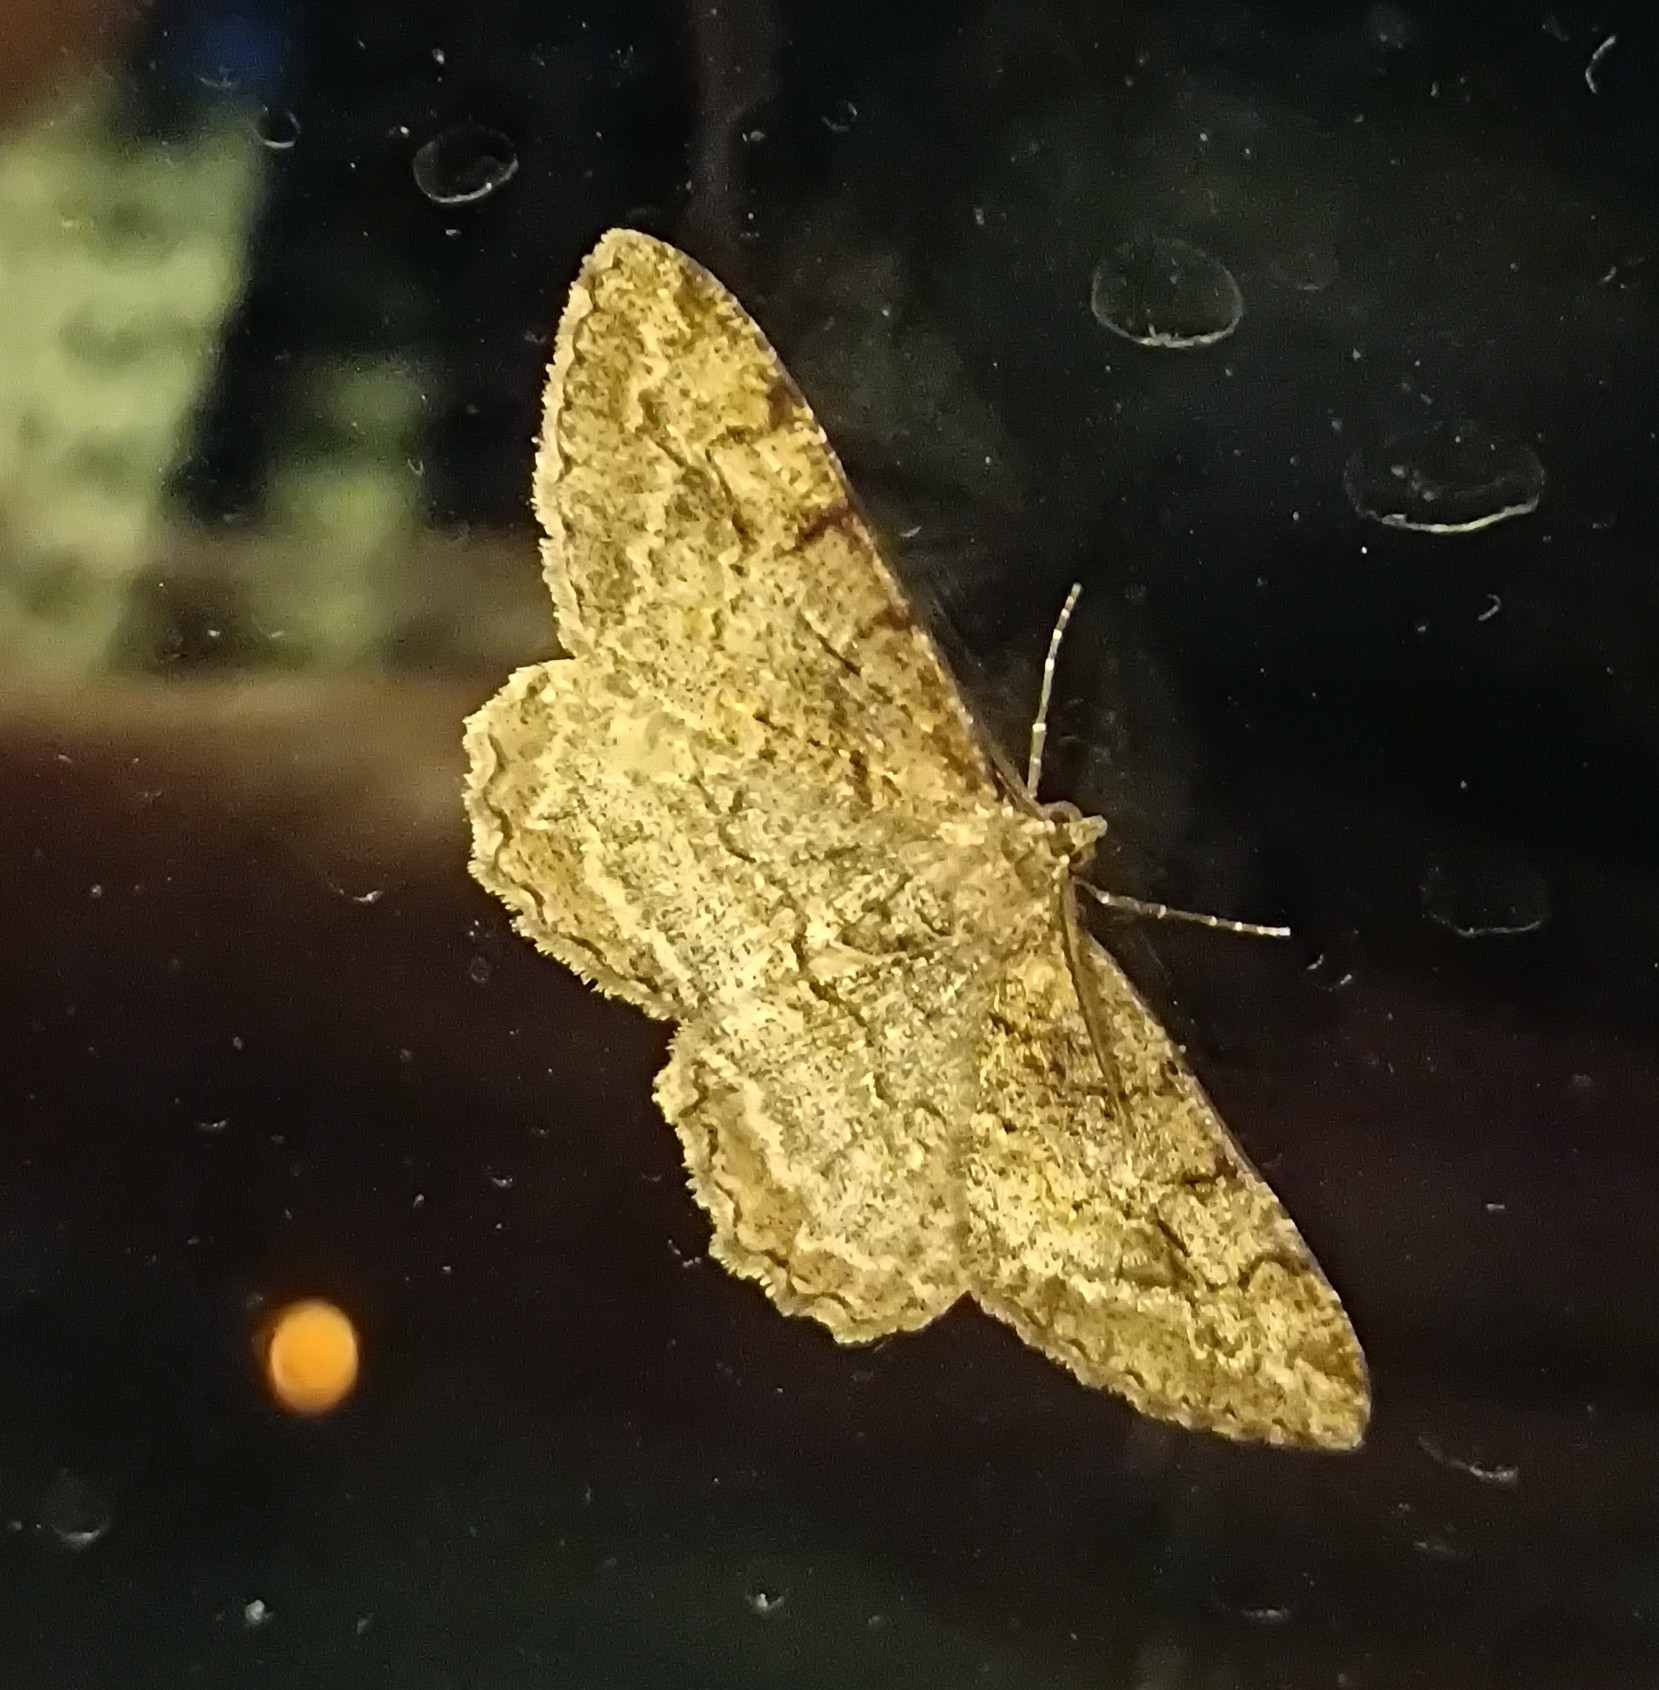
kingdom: Animalia
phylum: Arthropoda
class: Insecta
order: Lepidoptera
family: Geometridae
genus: Alcis
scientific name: Alcis repandata
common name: Mottled beauty
